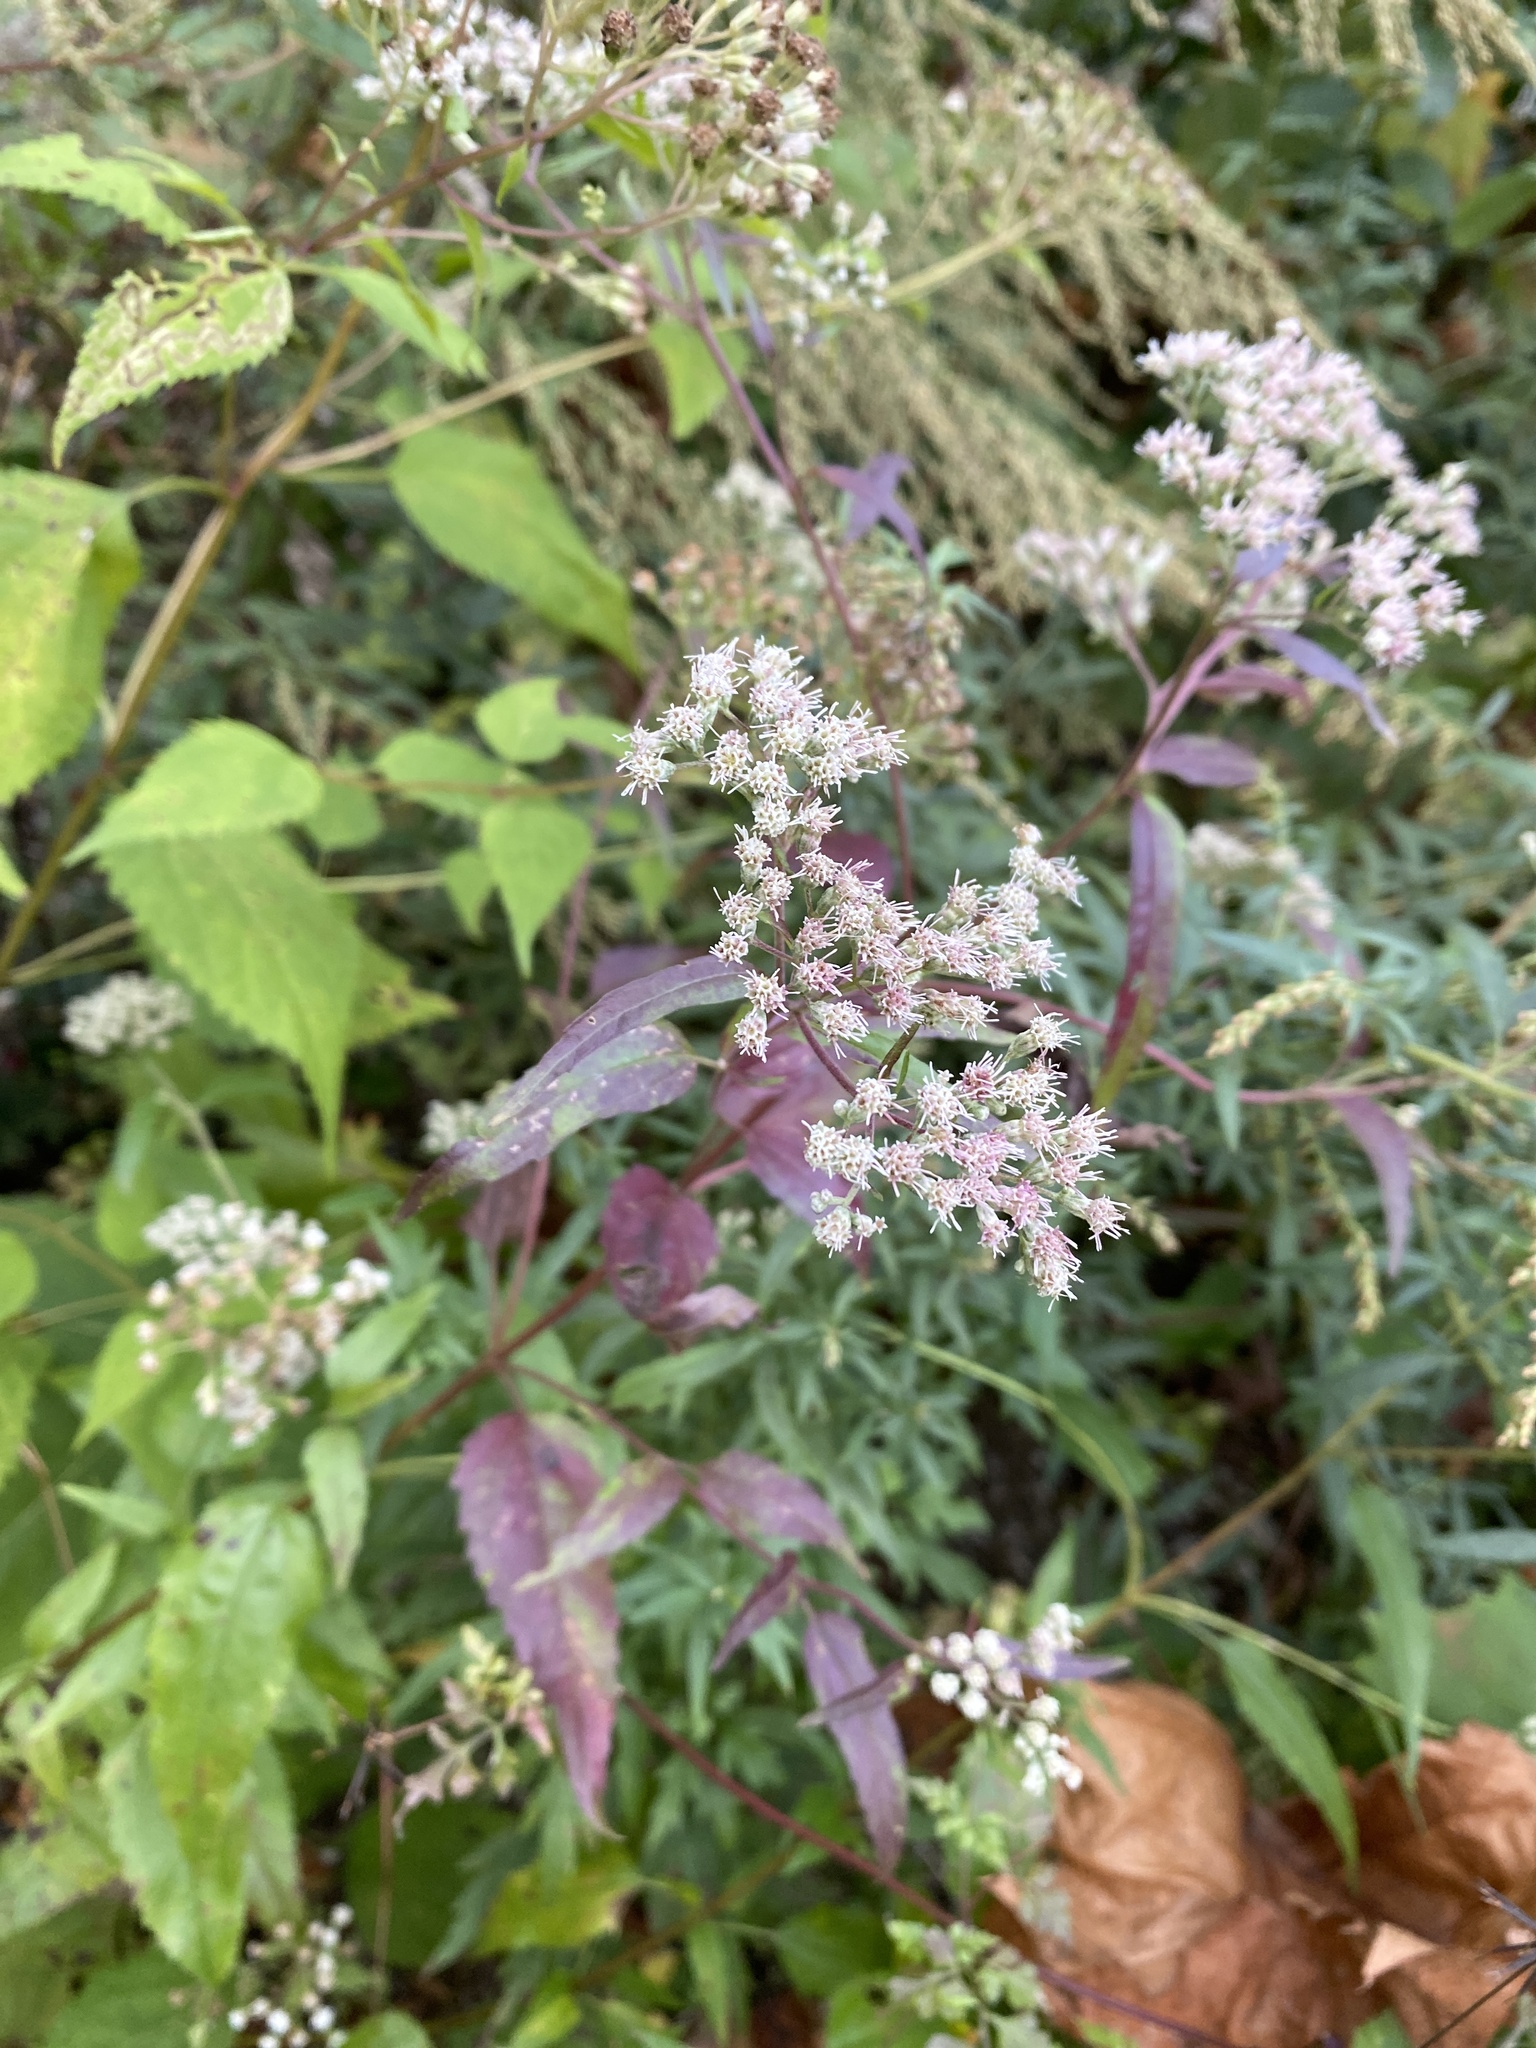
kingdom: Plantae
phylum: Tracheophyta
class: Magnoliopsida
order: Asterales
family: Asteraceae
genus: Eupatorium
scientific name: Eupatorium serotinum
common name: Late boneset
